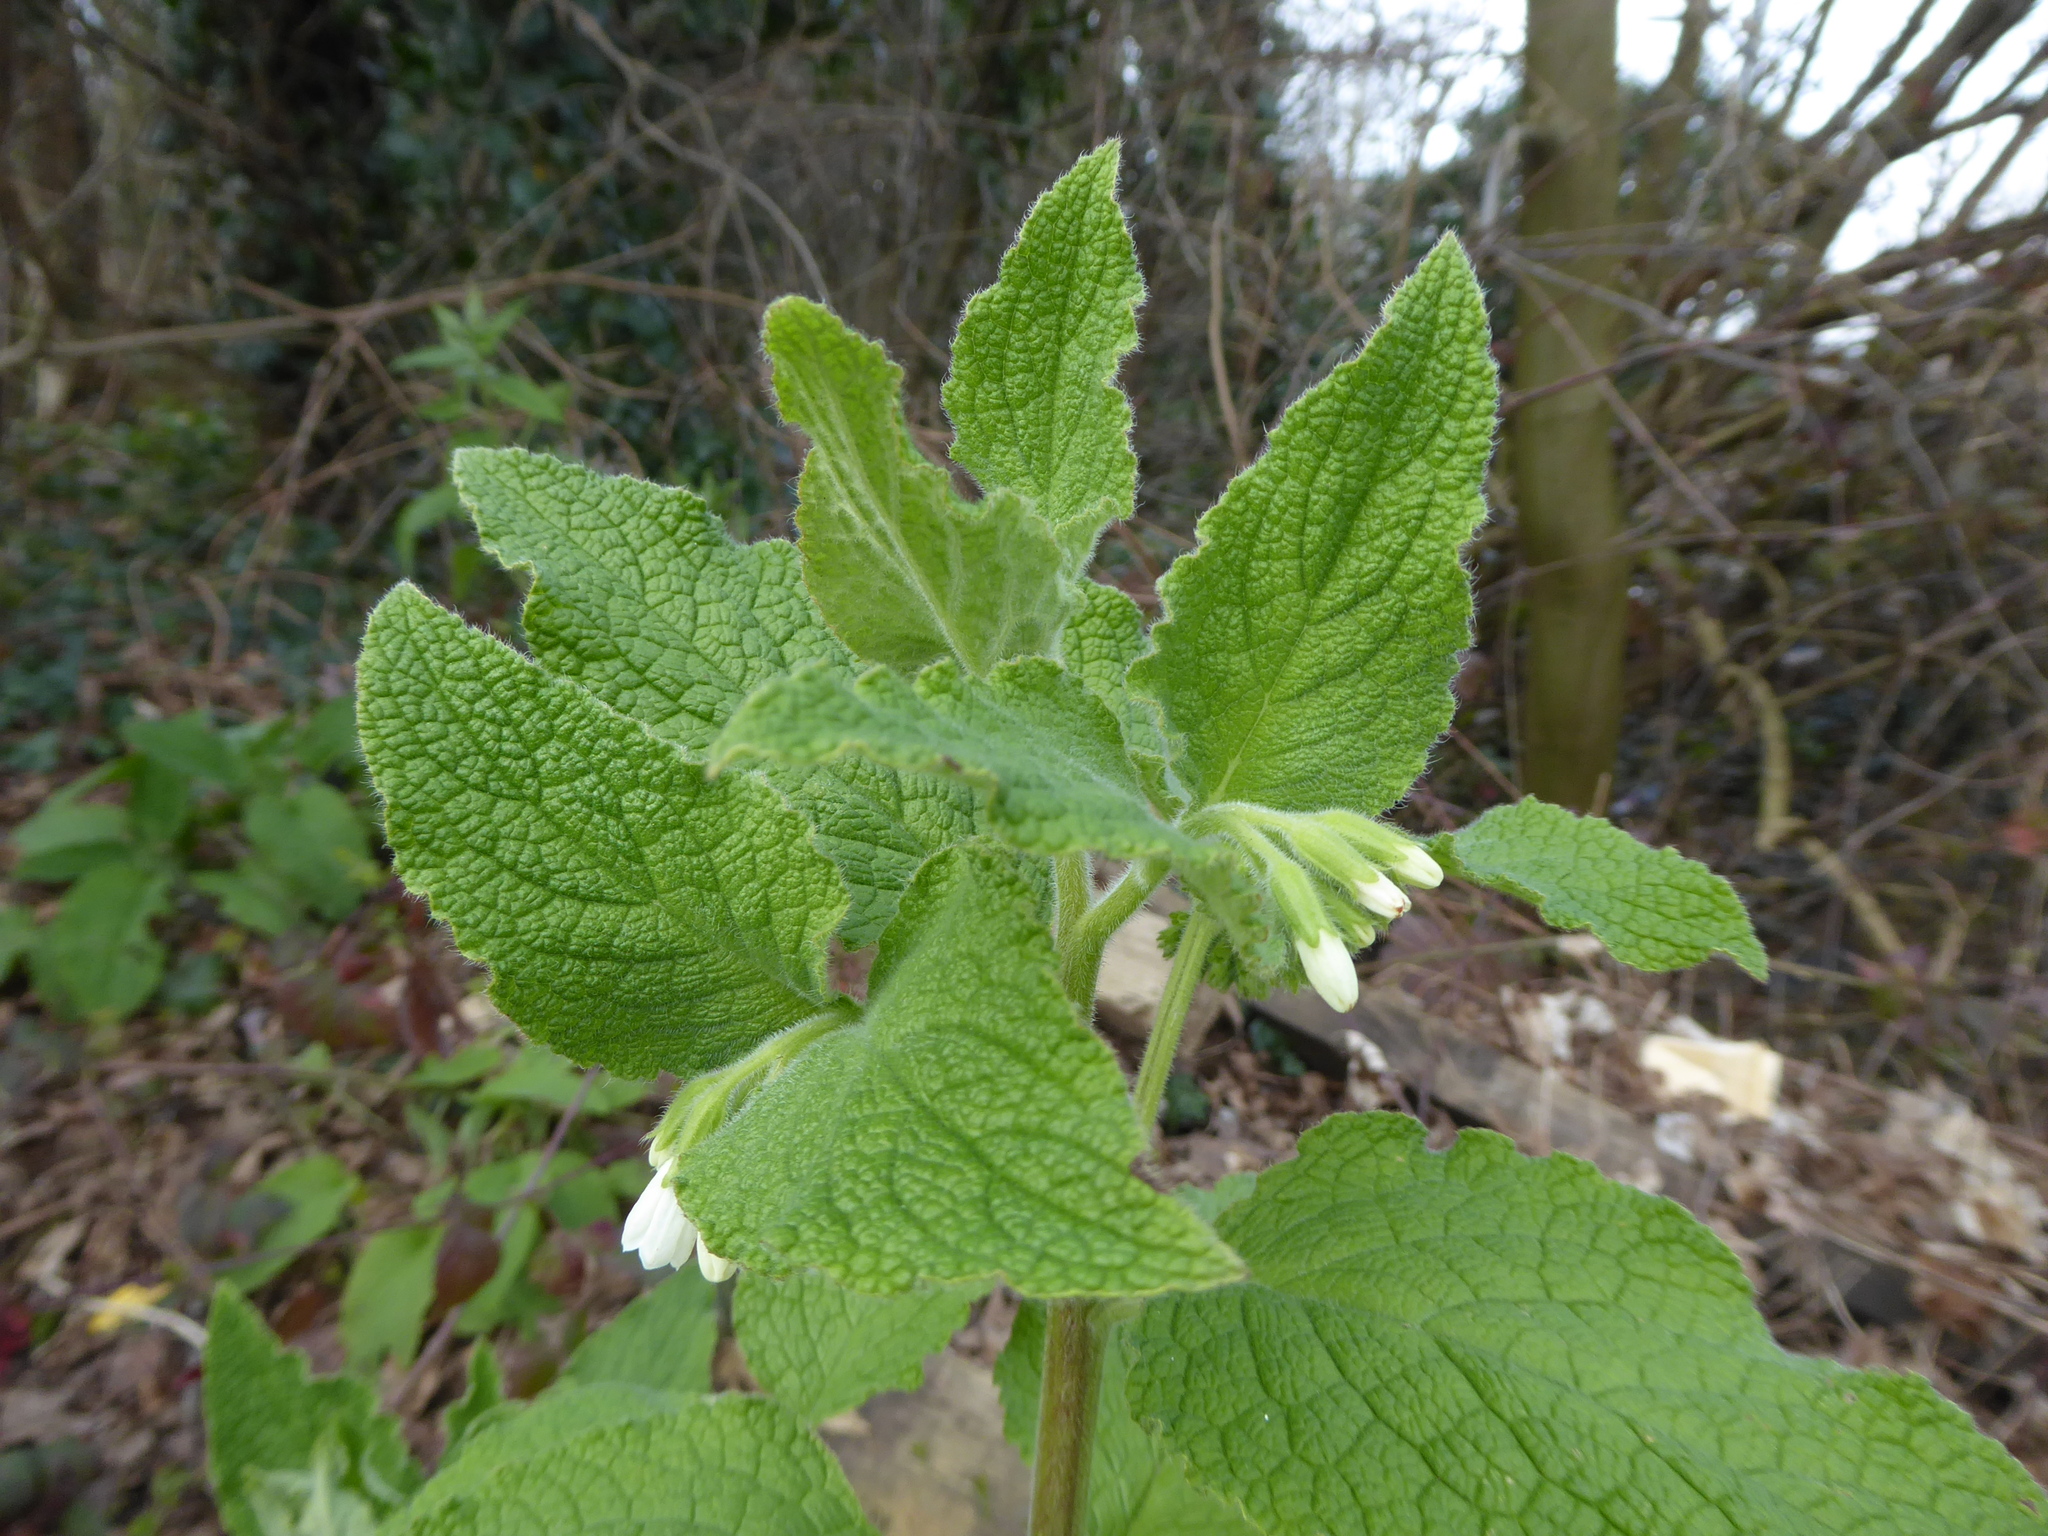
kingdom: Plantae
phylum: Tracheophyta
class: Magnoliopsida
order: Boraginales
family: Boraginaceae
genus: Symphytum
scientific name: Symphytum orientale
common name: White comfrey
